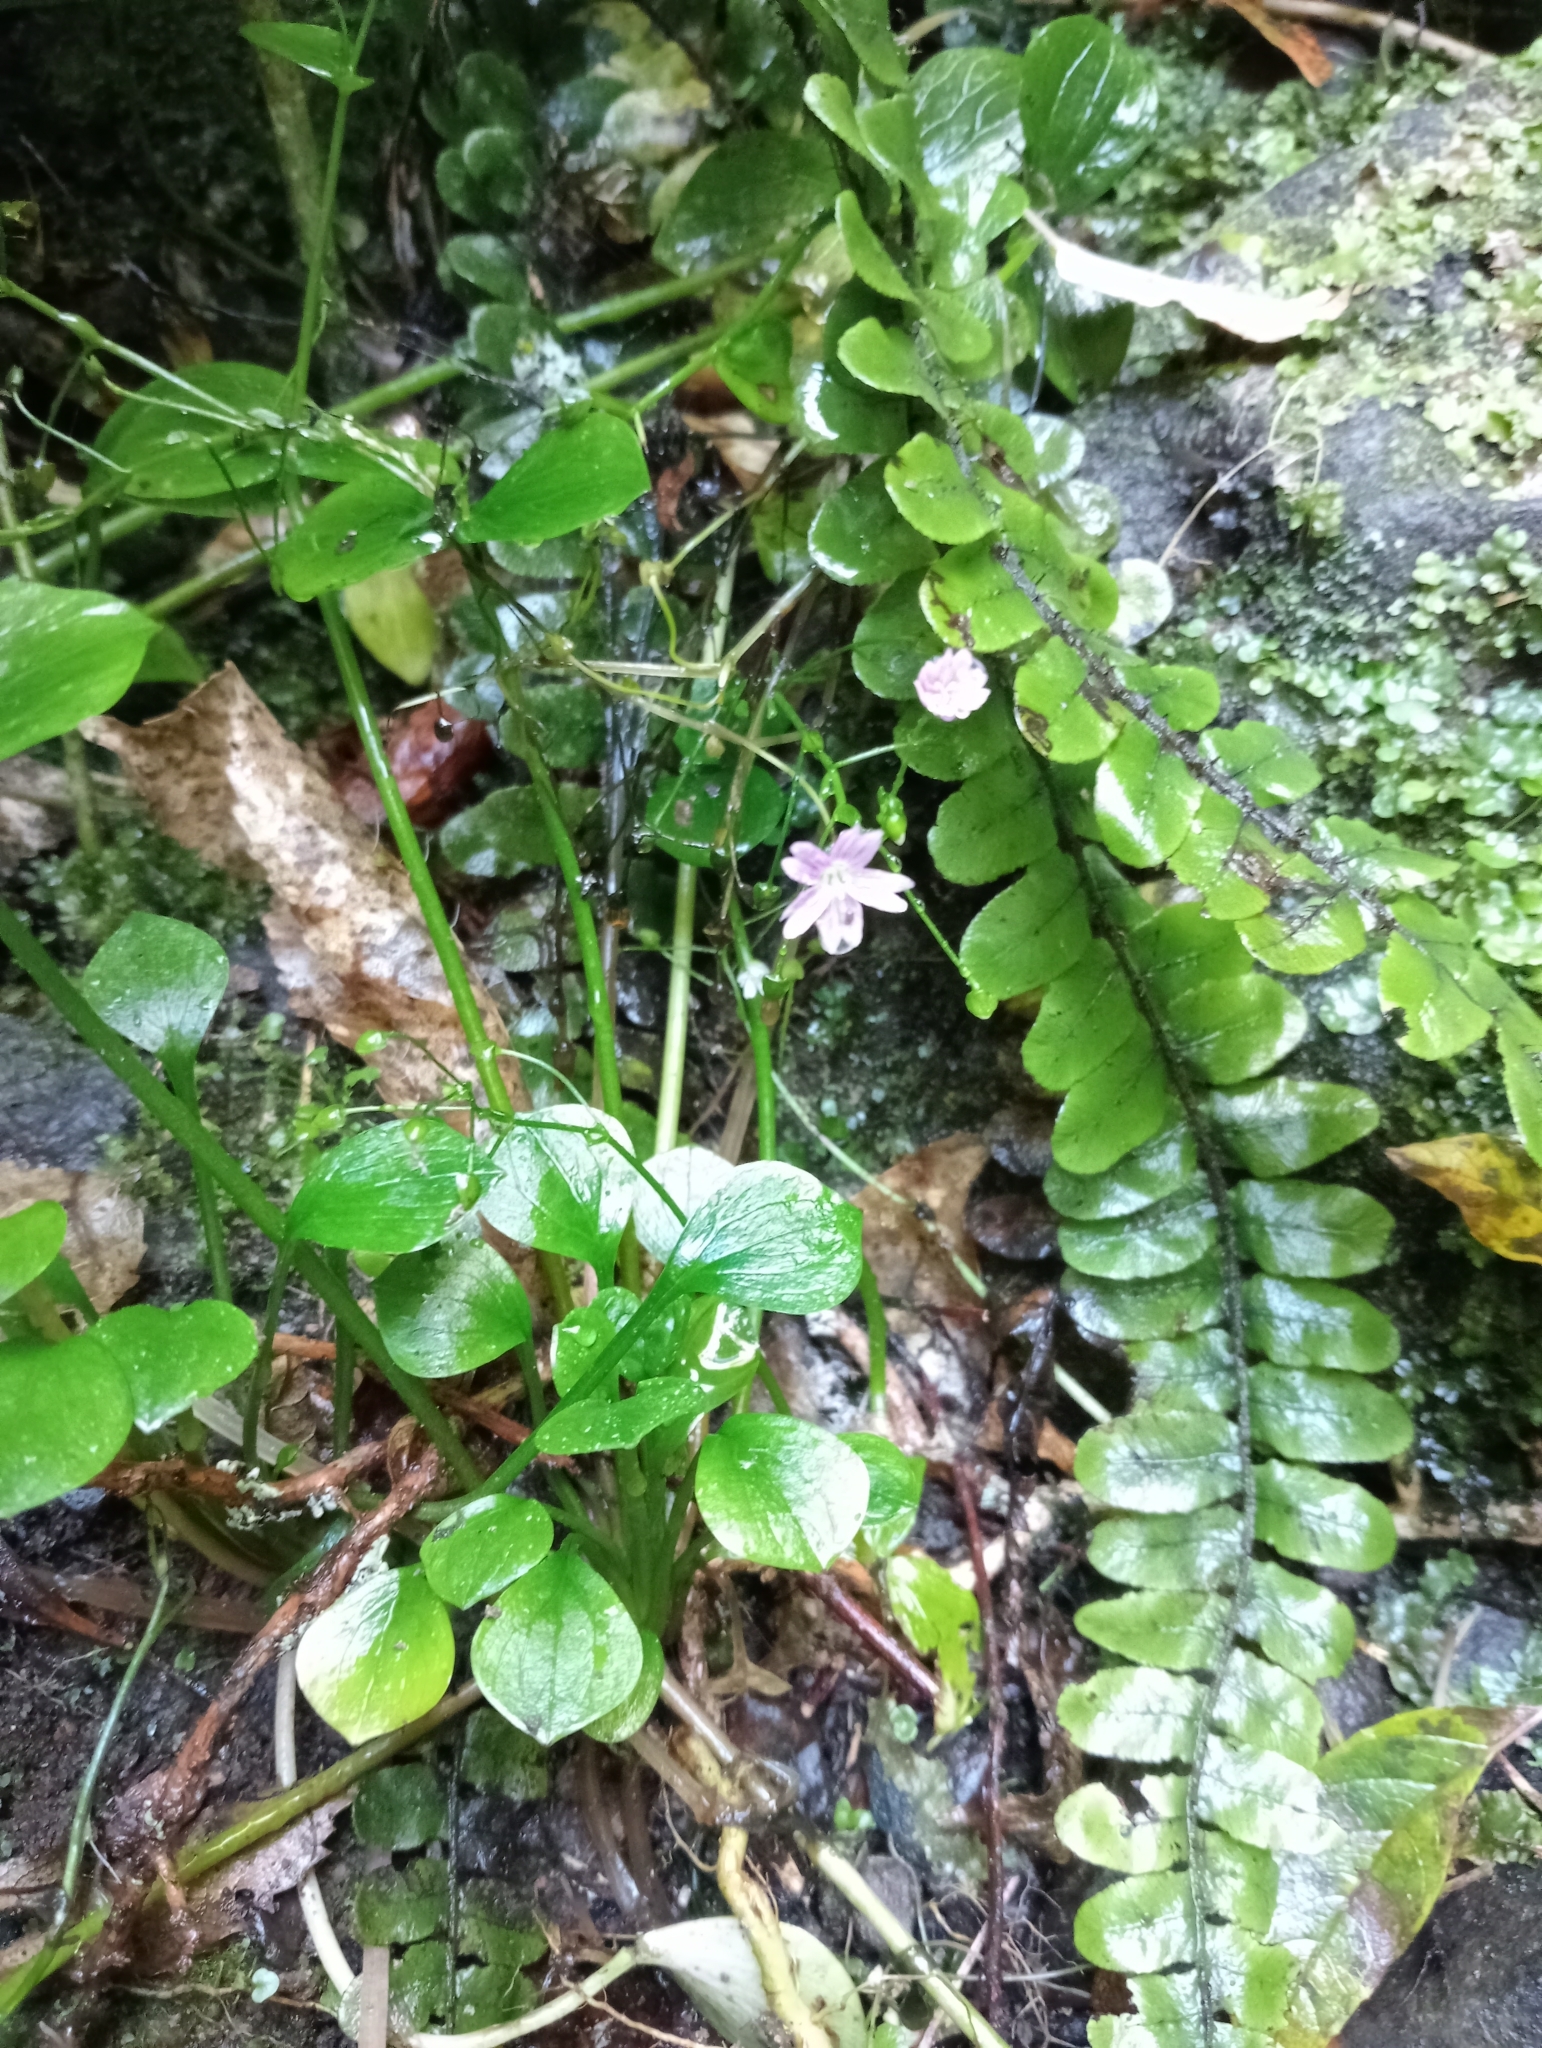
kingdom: Plantae
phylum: Tracheophyta
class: Magnoliopsida
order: Caryophyllales
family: Montiaceae
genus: Claytonia
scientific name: Claytonia sibirica
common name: Pink purslane
